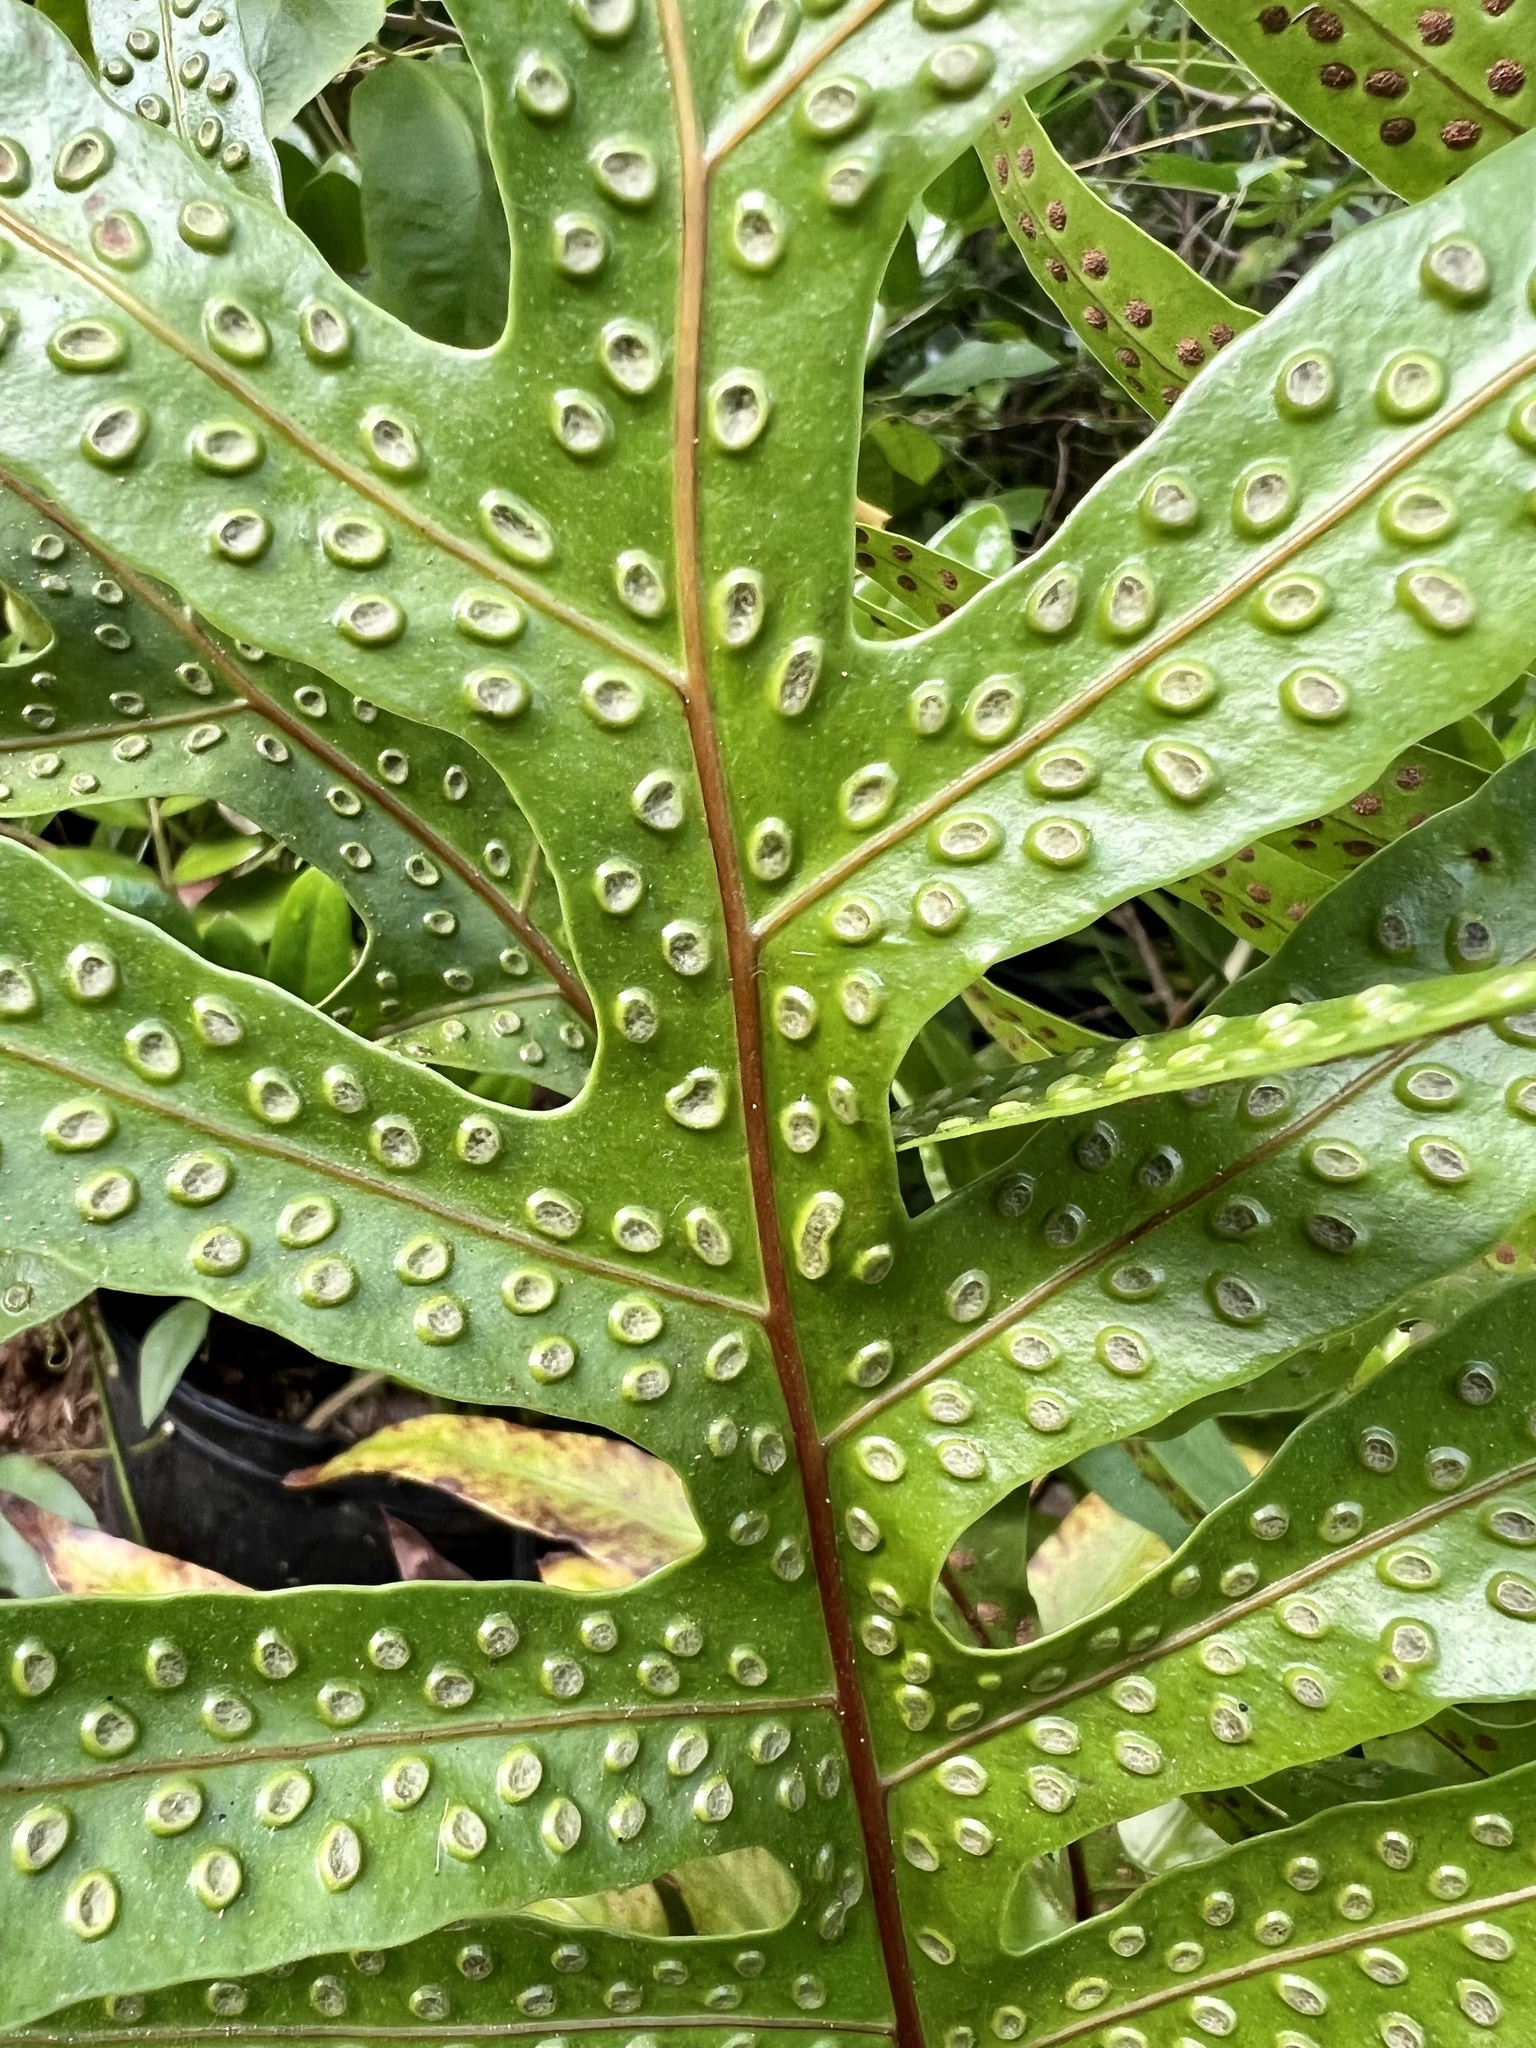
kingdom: Plantae
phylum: Tracheophyta
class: Polypodiopsida
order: Polypodiales
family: Polypodiaceae
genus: Microsorum
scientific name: Microsorum grossum
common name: Musk fern
